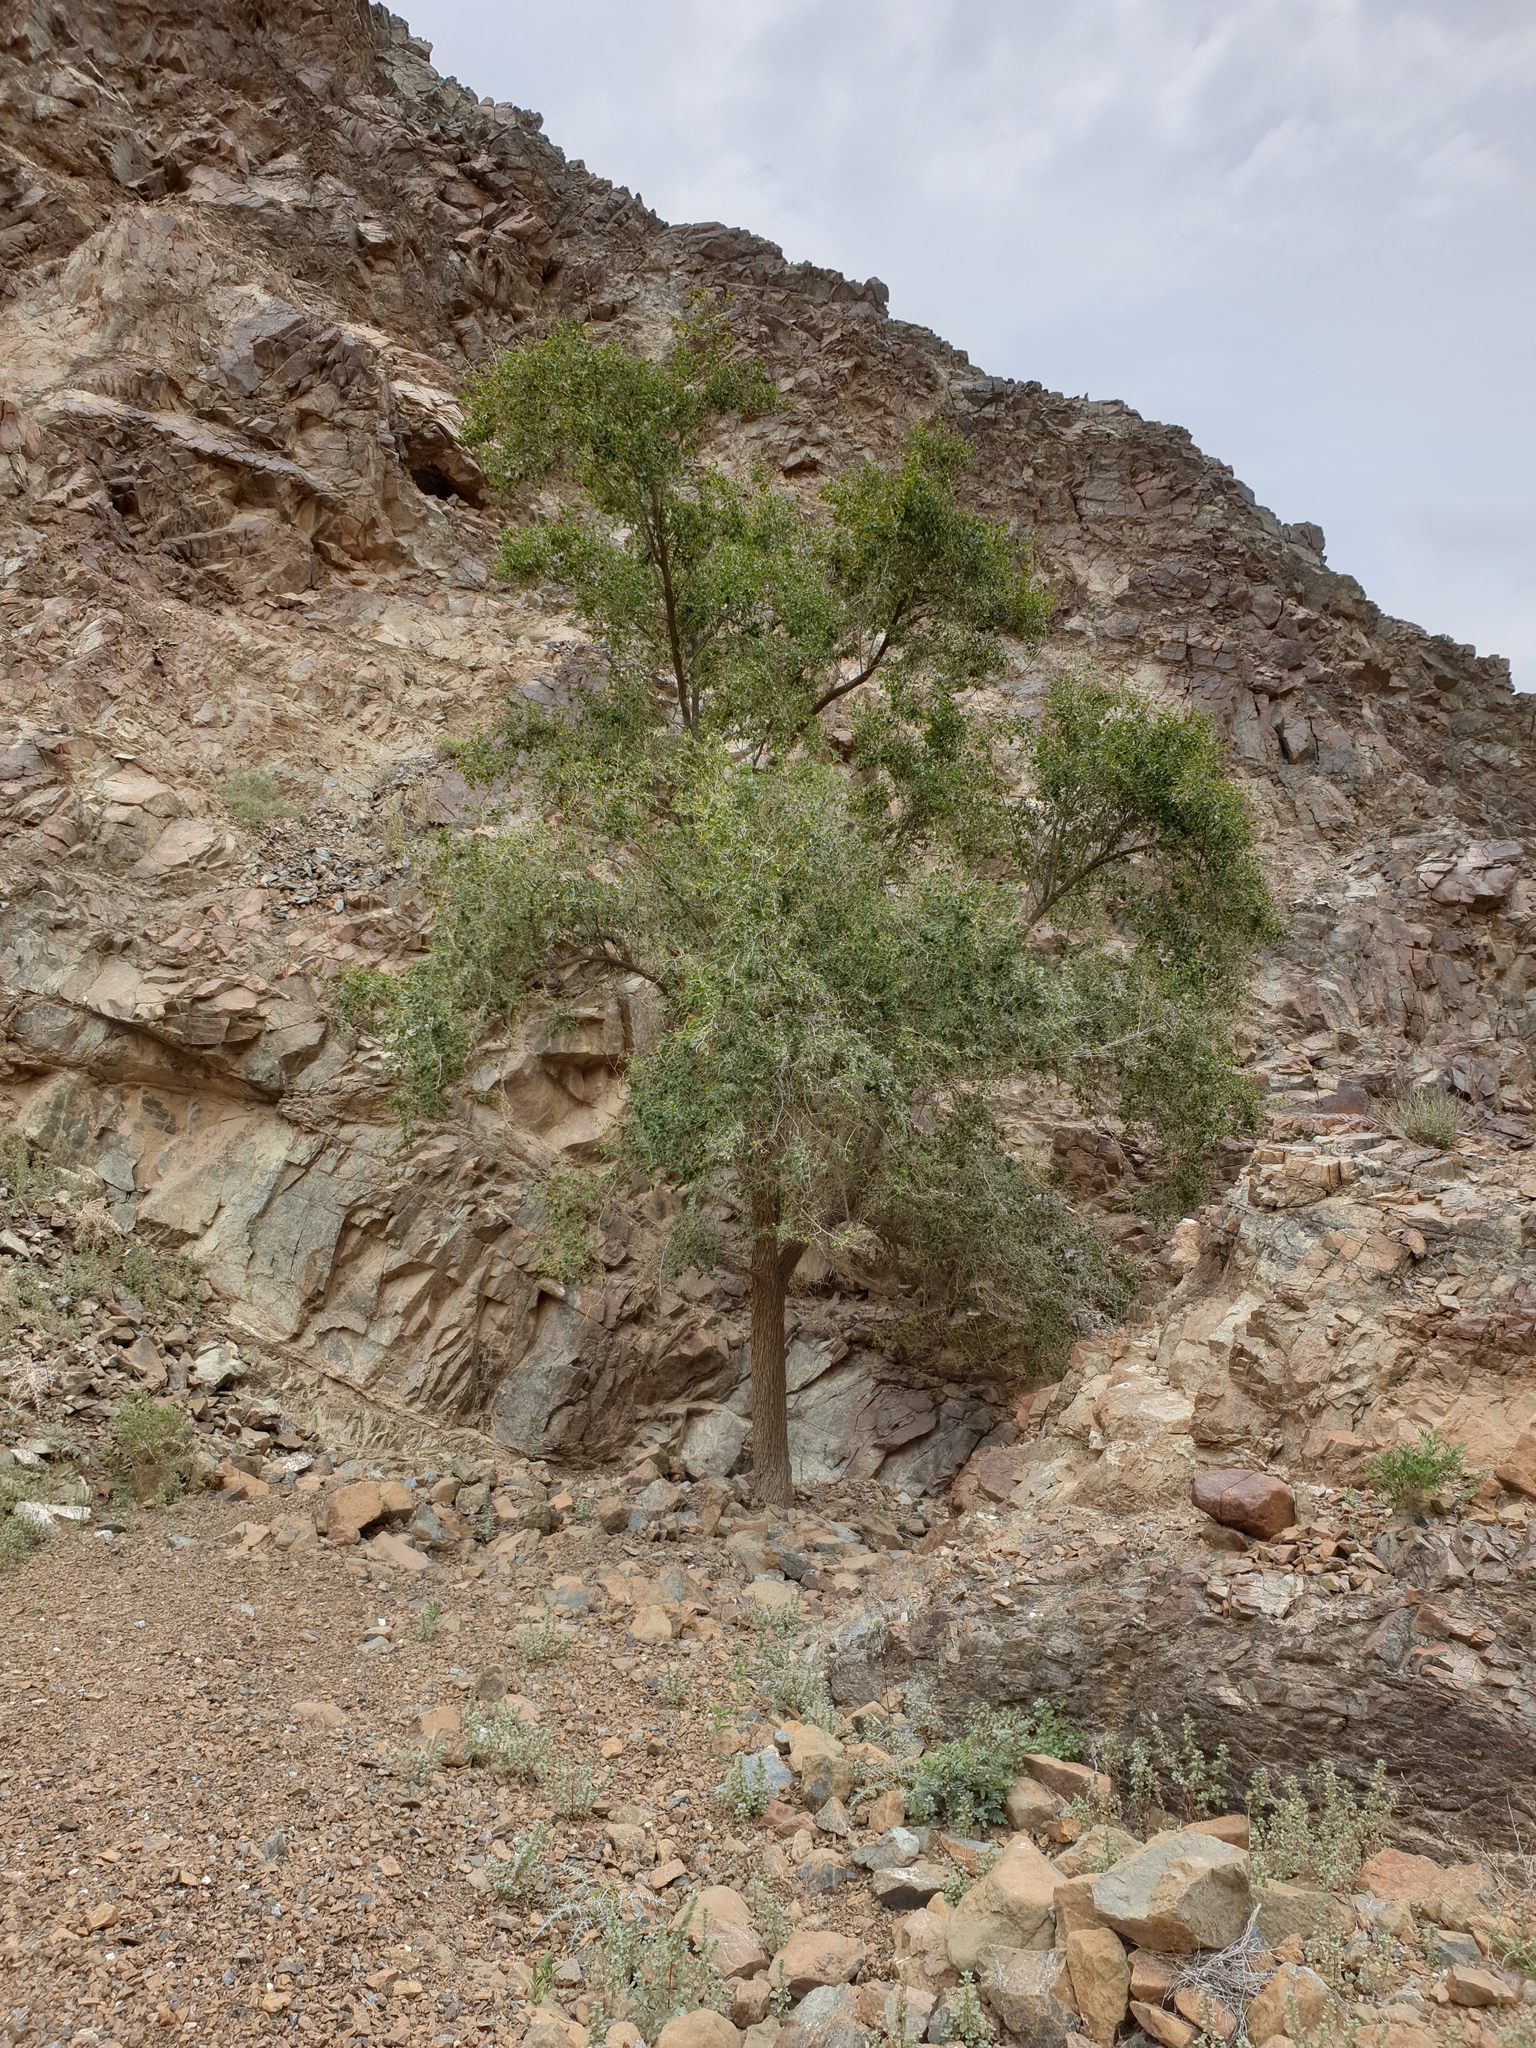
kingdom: Plantae
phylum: Tracheophyta
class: Magnoliopsida
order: Rosales
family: Rhamnaceae
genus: Ziziphus
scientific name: Ziziphus spina-christi
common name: Syrian christ-thorn
